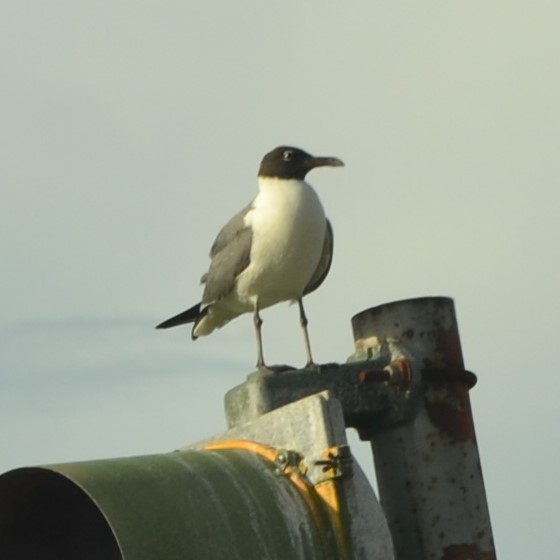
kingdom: Animalia
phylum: Chordata
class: Aves
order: Charadriiformes
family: Laridae
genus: Leucophaeus
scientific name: Leucophaeus atricilla
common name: Laughing gull
